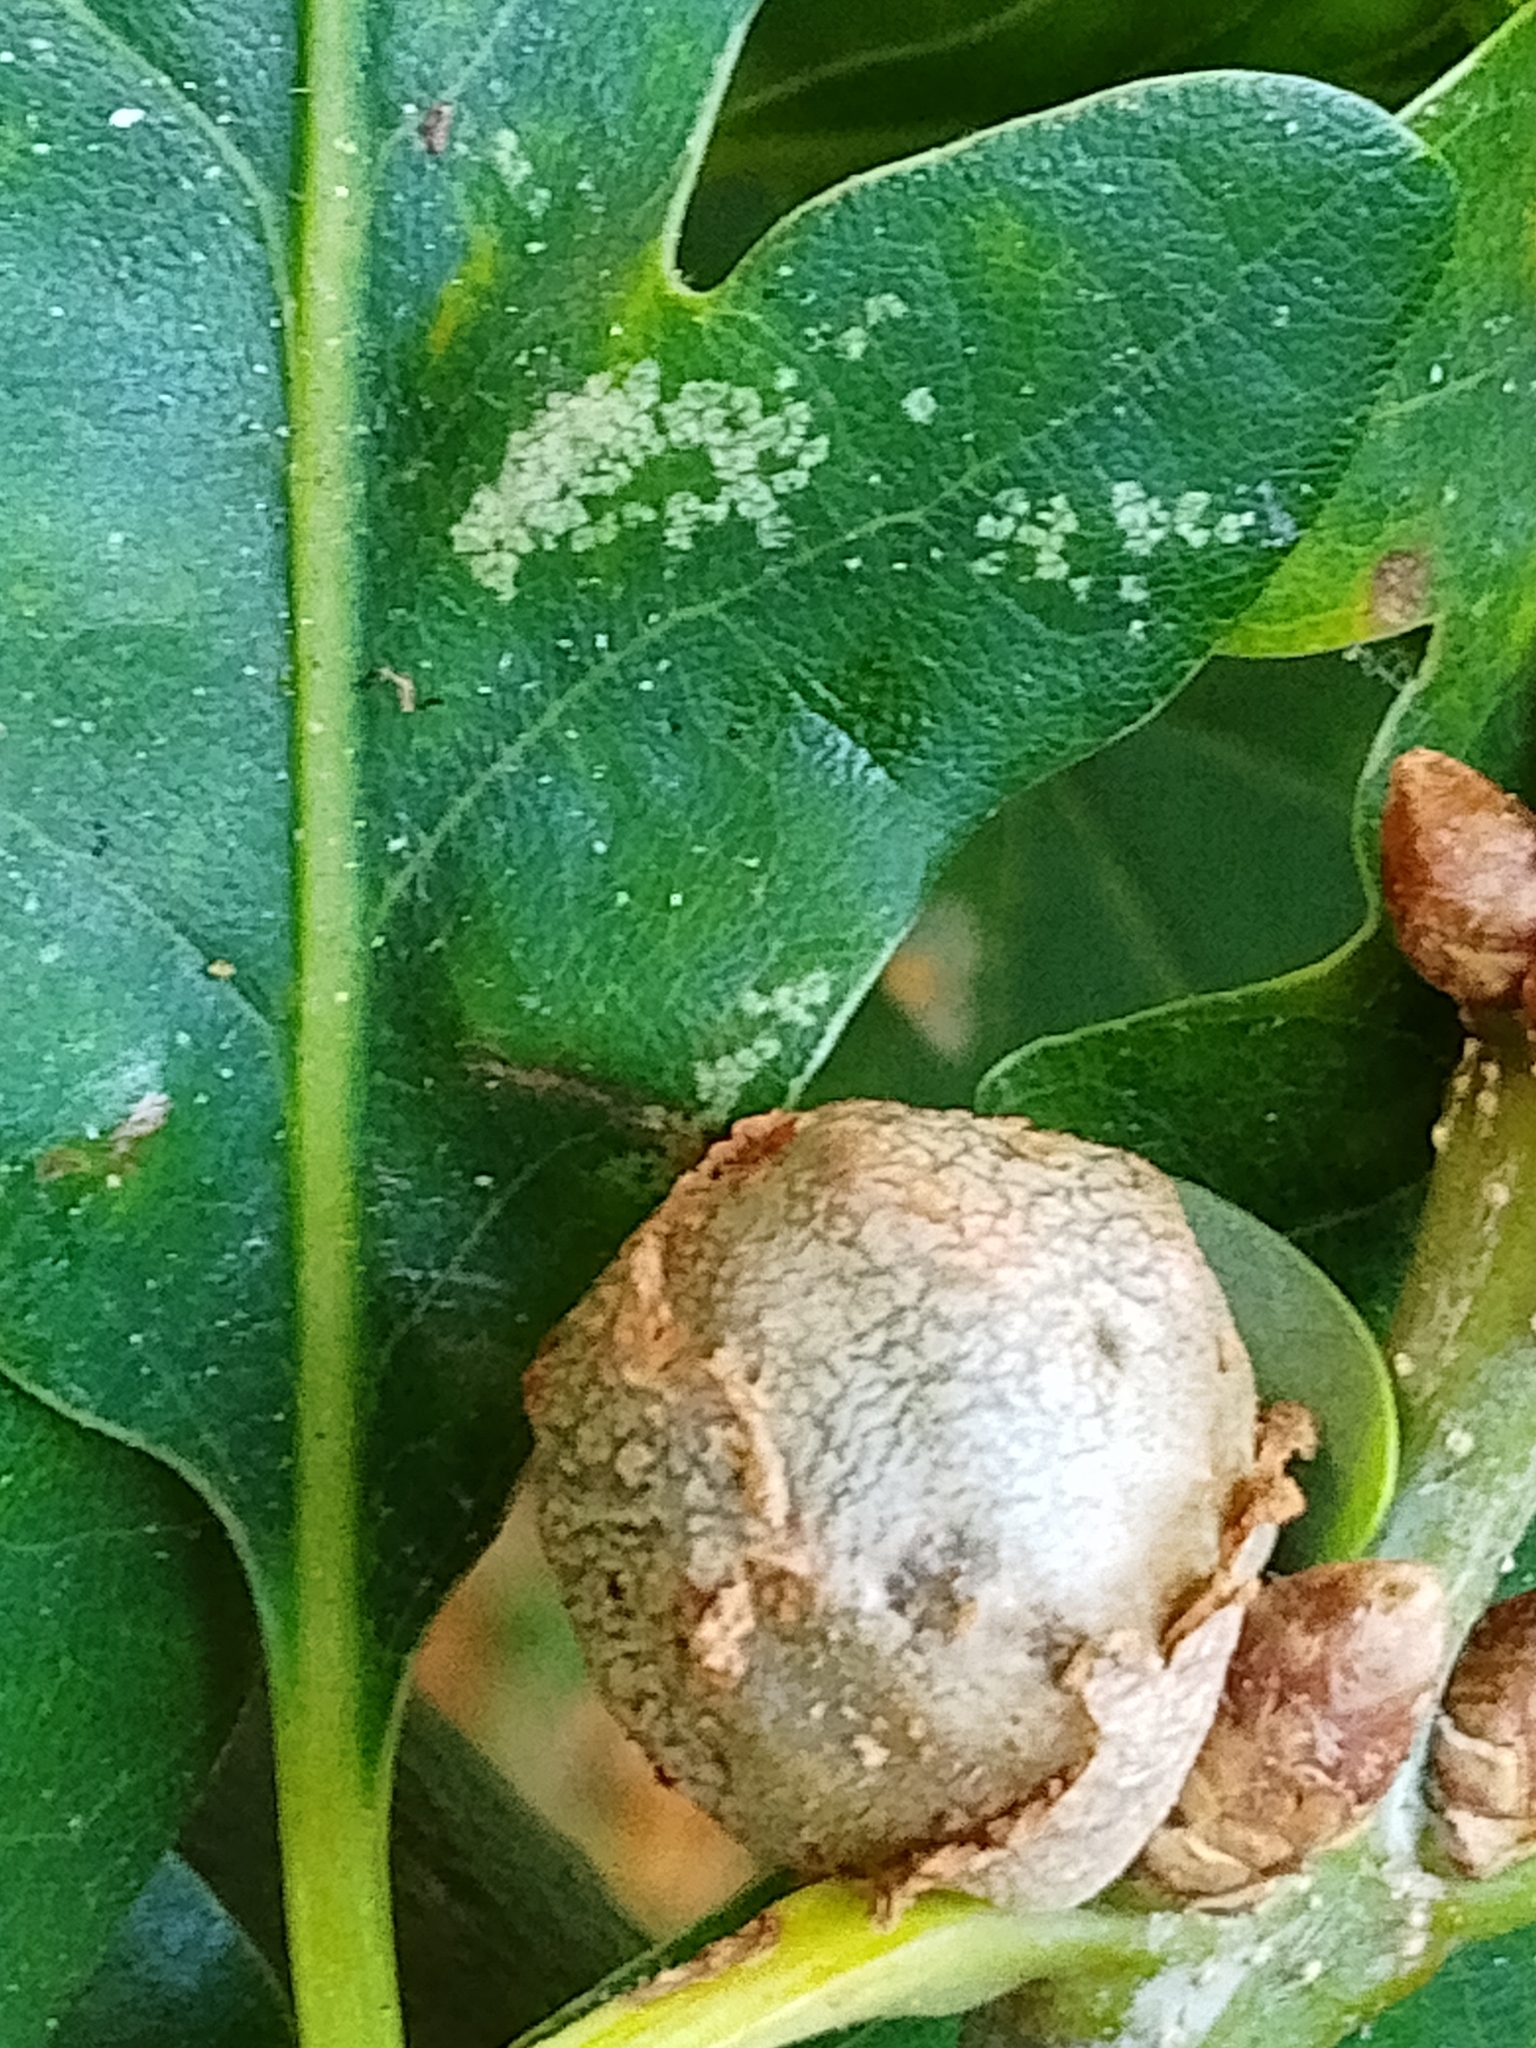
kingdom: Animalia
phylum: Arthropoda
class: Insecta
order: Hymenoptera
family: Cynipidae
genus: Andricus
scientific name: Andricus lignicolus
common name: Cola-nut gall
